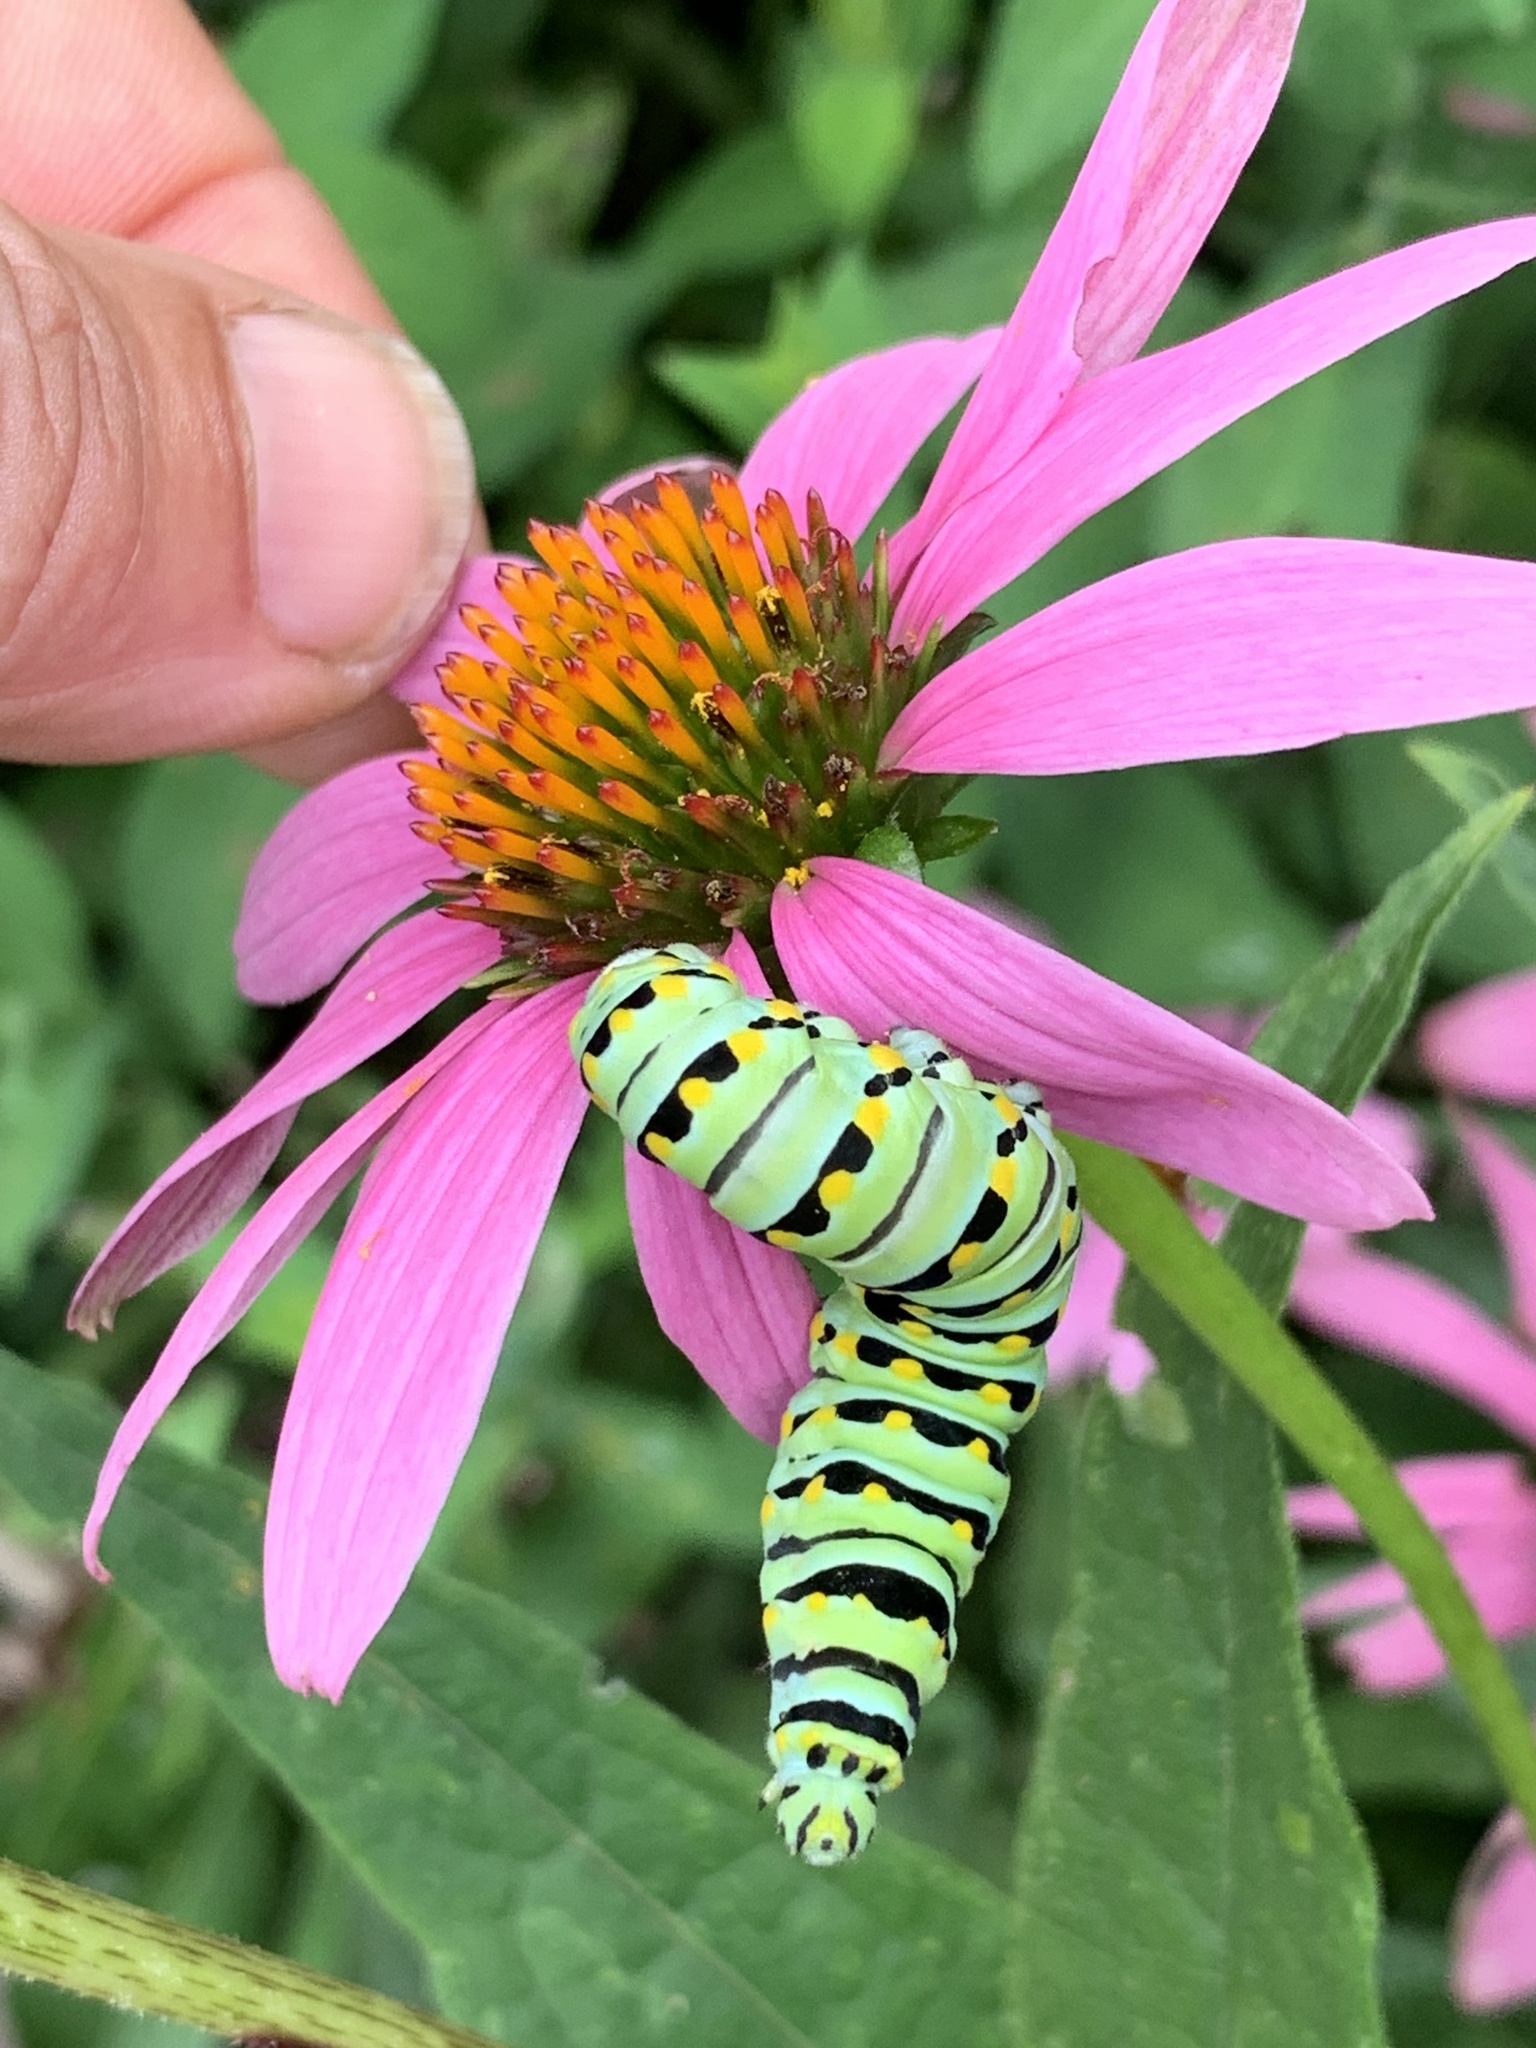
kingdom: Animalia
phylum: Arthropoda
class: Insecta
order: Lepidoptera
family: Papilionidae
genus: Papilio
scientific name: Papilio polyxenes
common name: Black swallowtail
